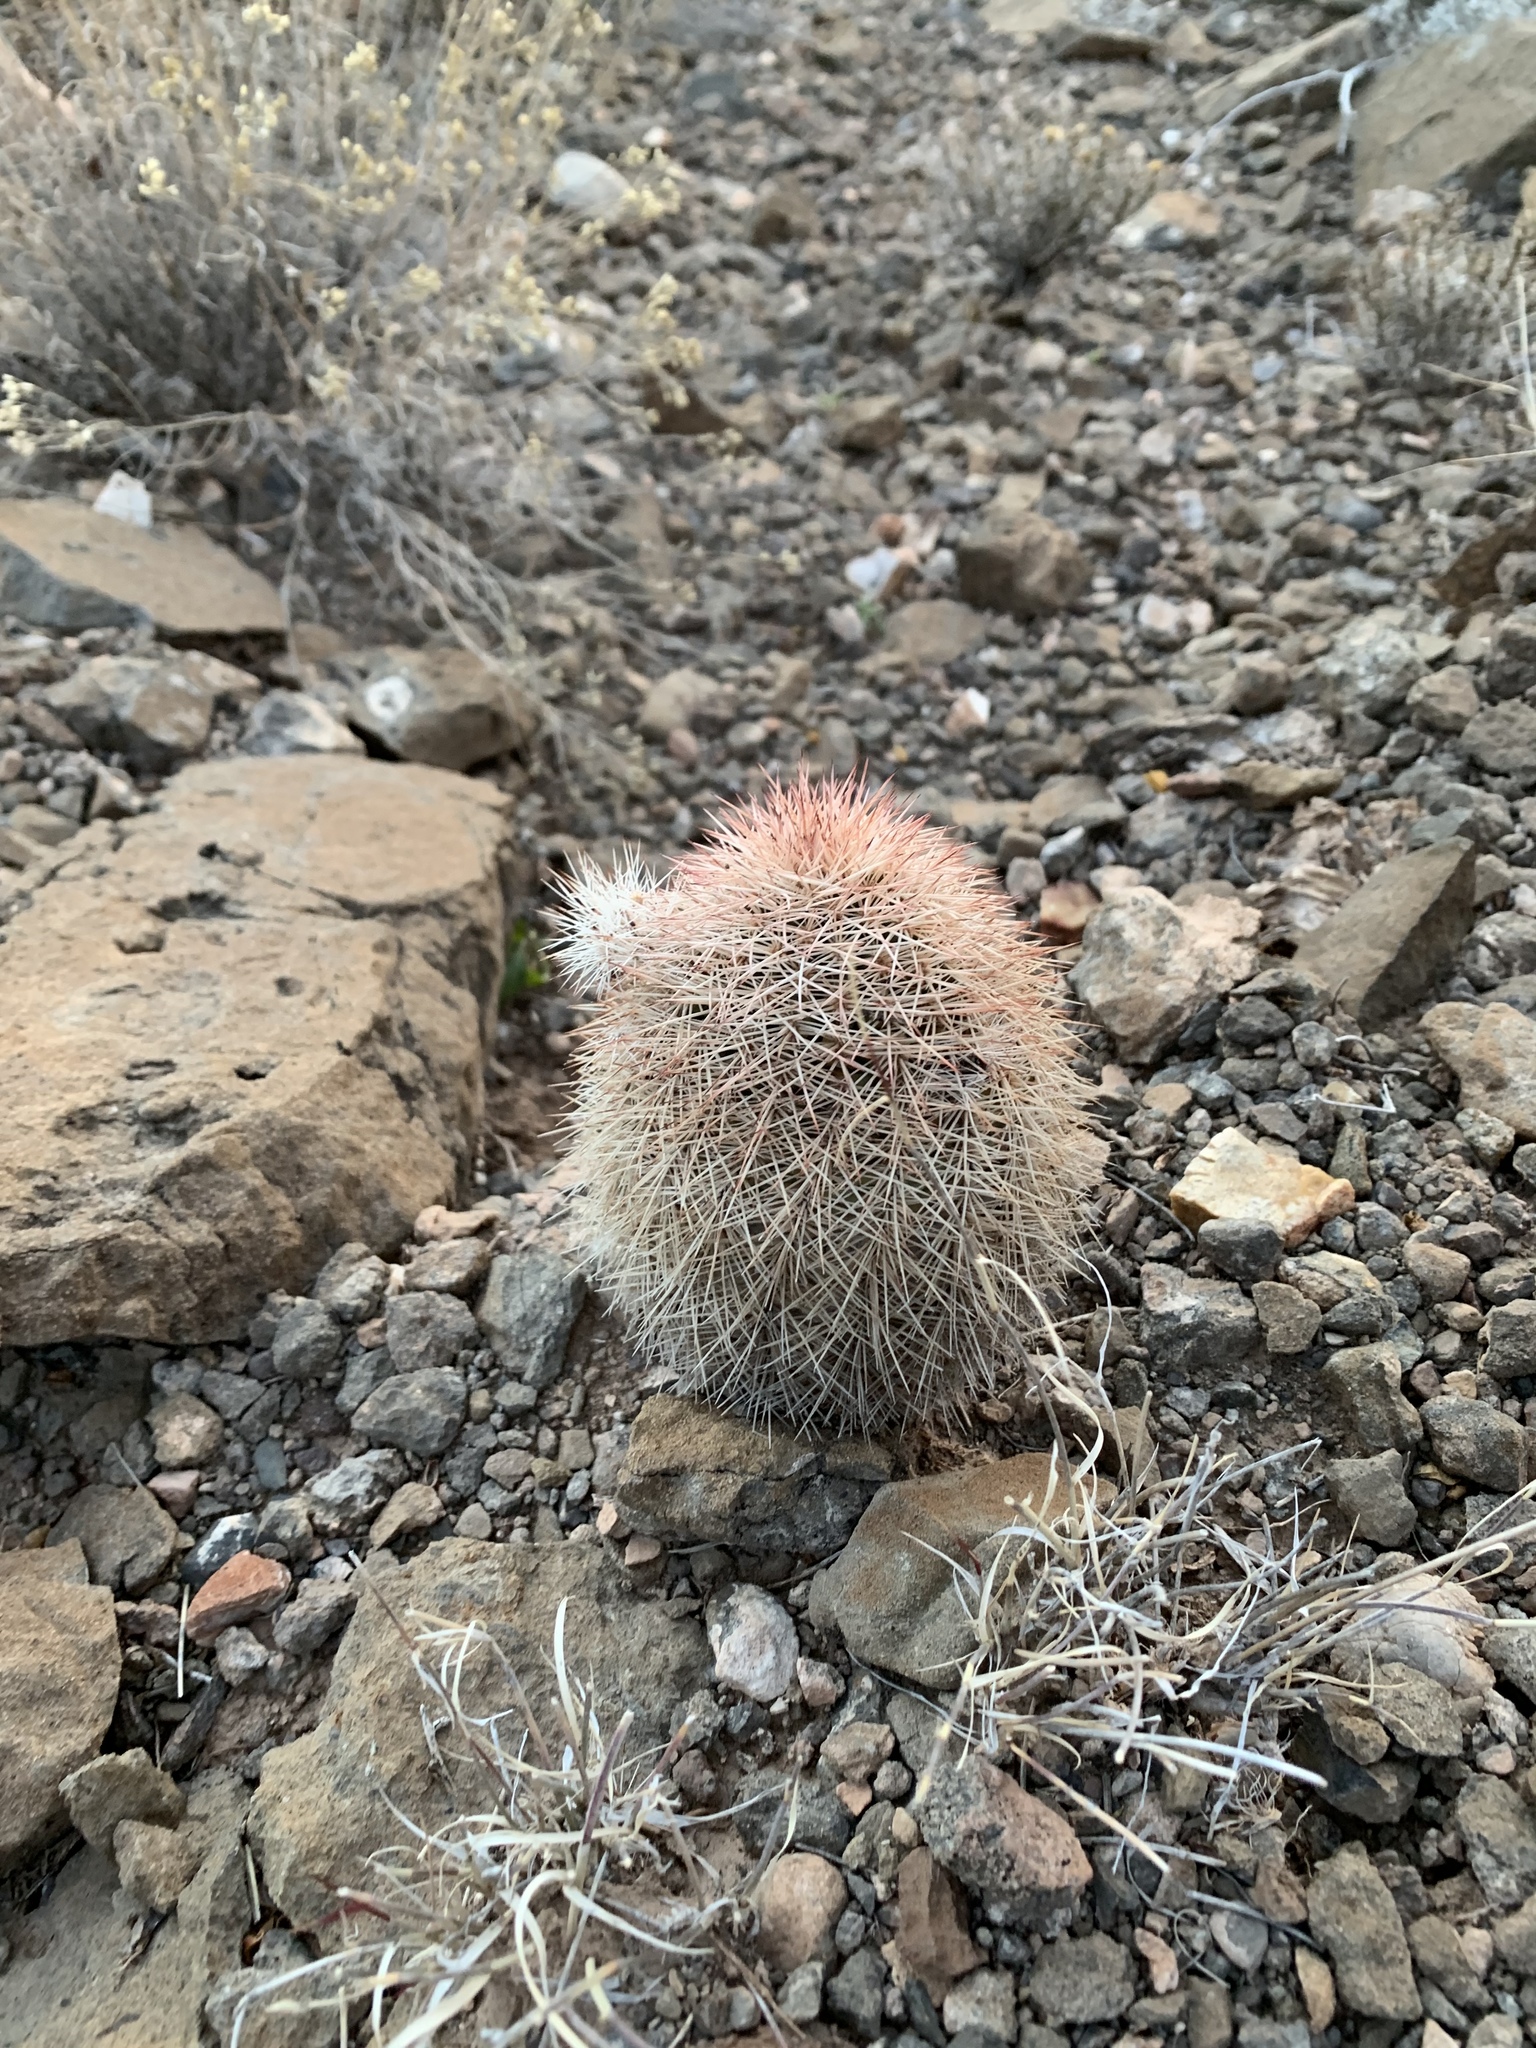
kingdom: Plantae
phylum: Tracheophyta
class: Magnoliopsida
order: Caryophyllales
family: Cactaceae
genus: Echinocereus
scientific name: Echinocereus dasyacanthus
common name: Spiny hedgehog cactus
